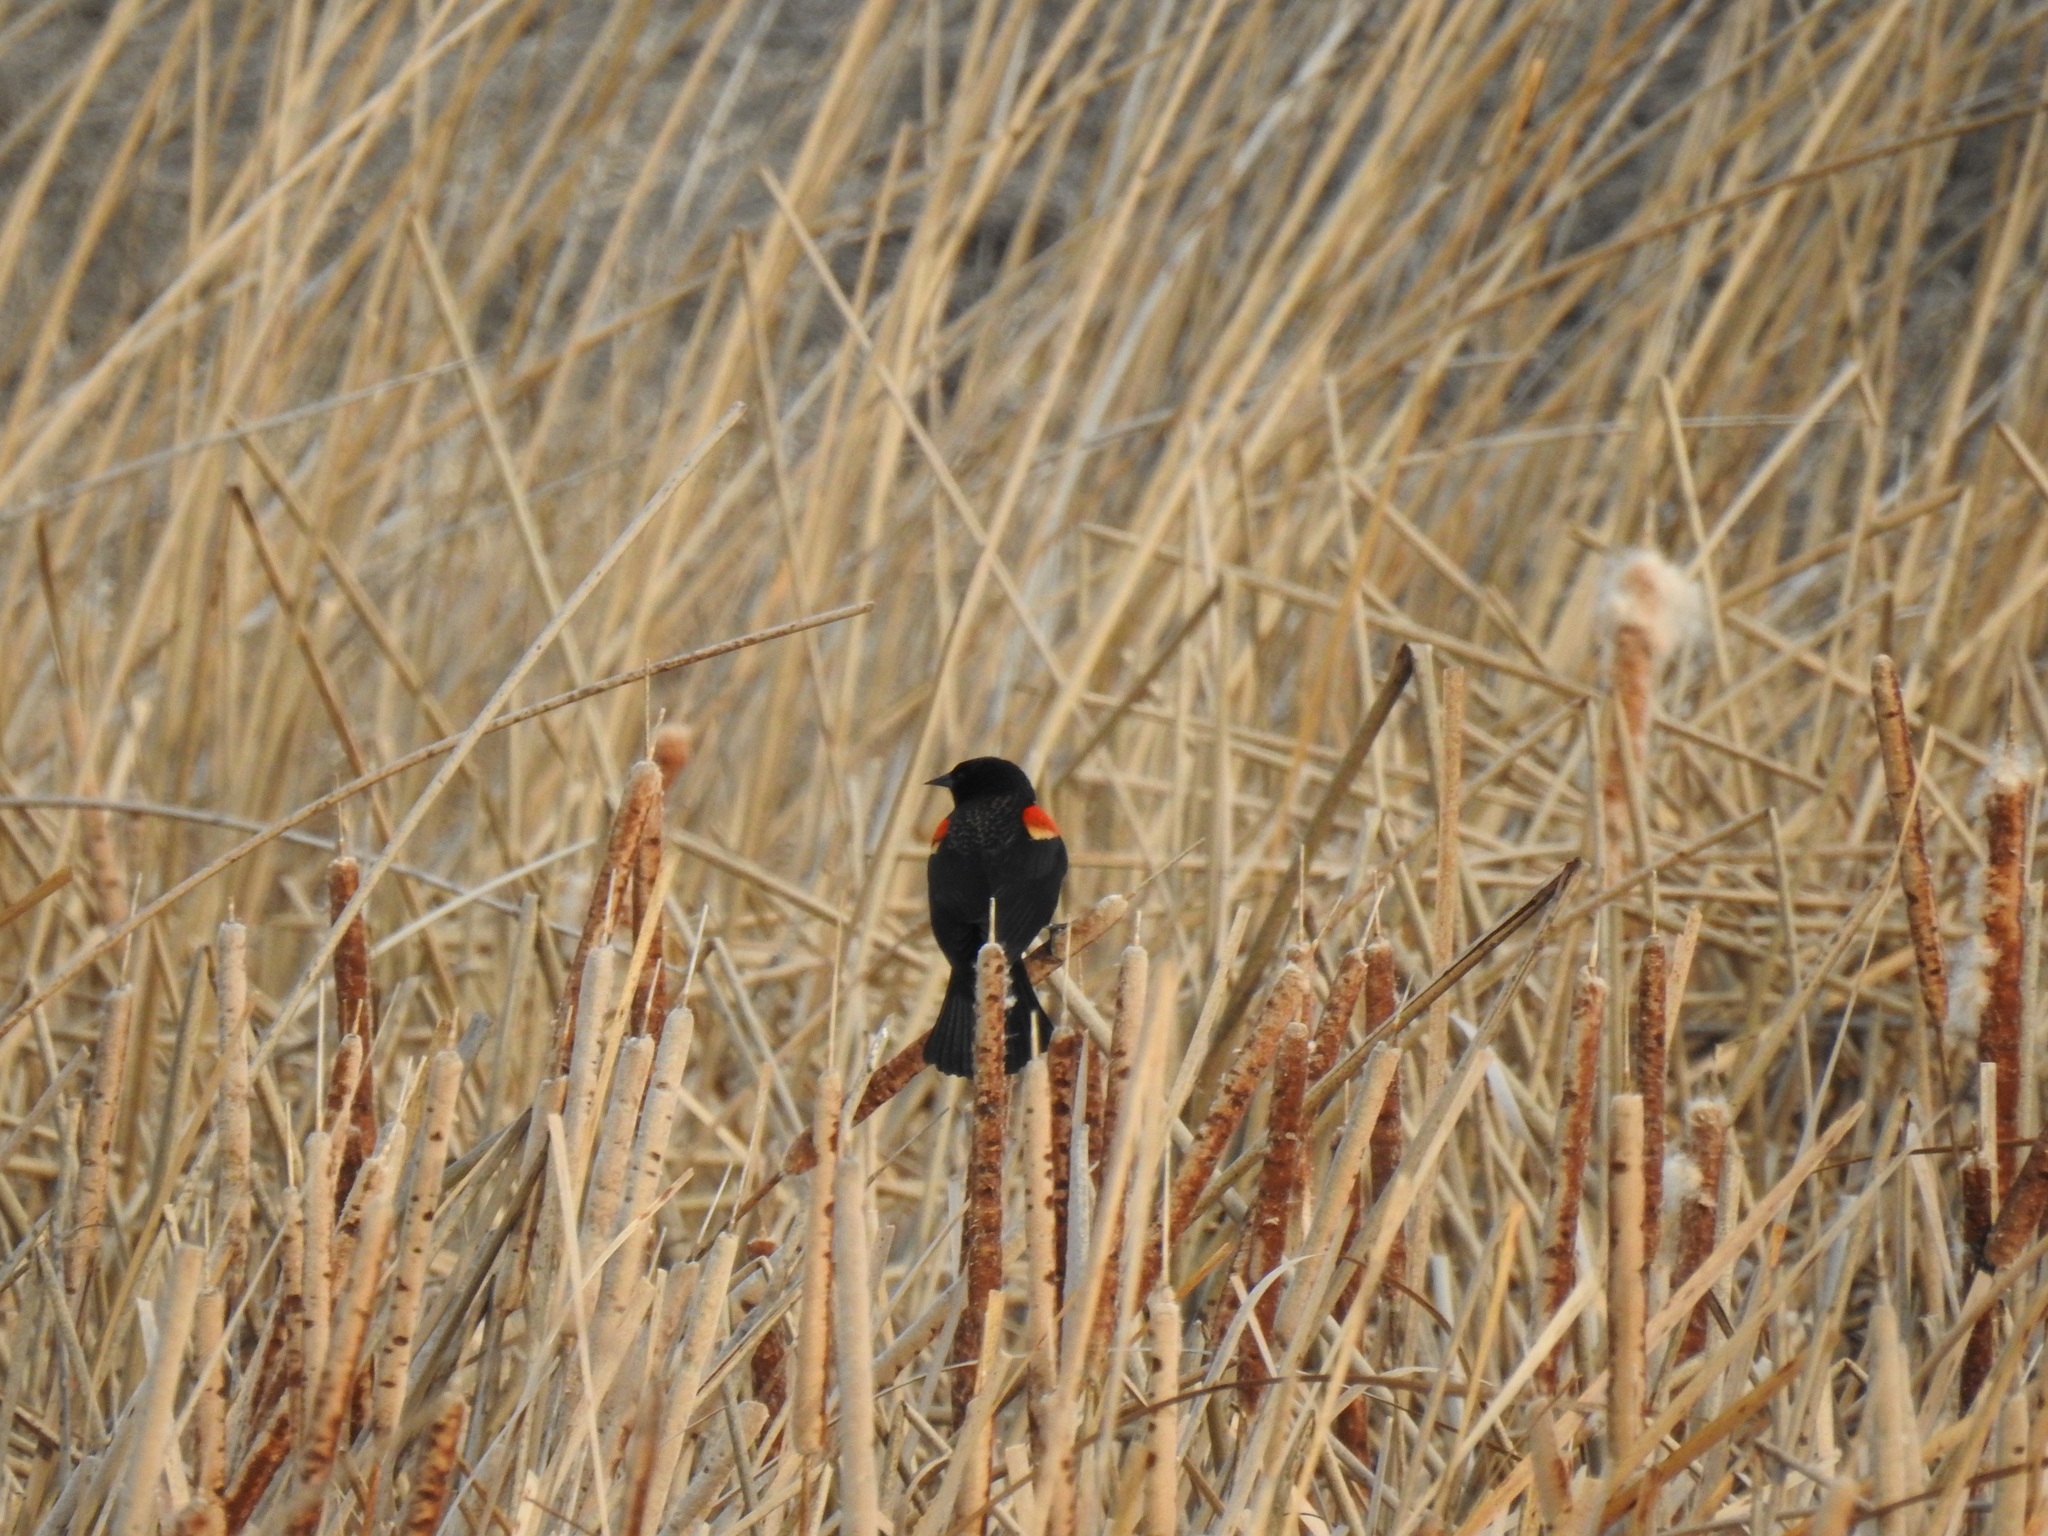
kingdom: Animalia
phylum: Chordata
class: Aves
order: Passeriformes
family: Icteridae
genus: Agelaius
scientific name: Agelaius phoeniceus
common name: Red-winged blackbird
